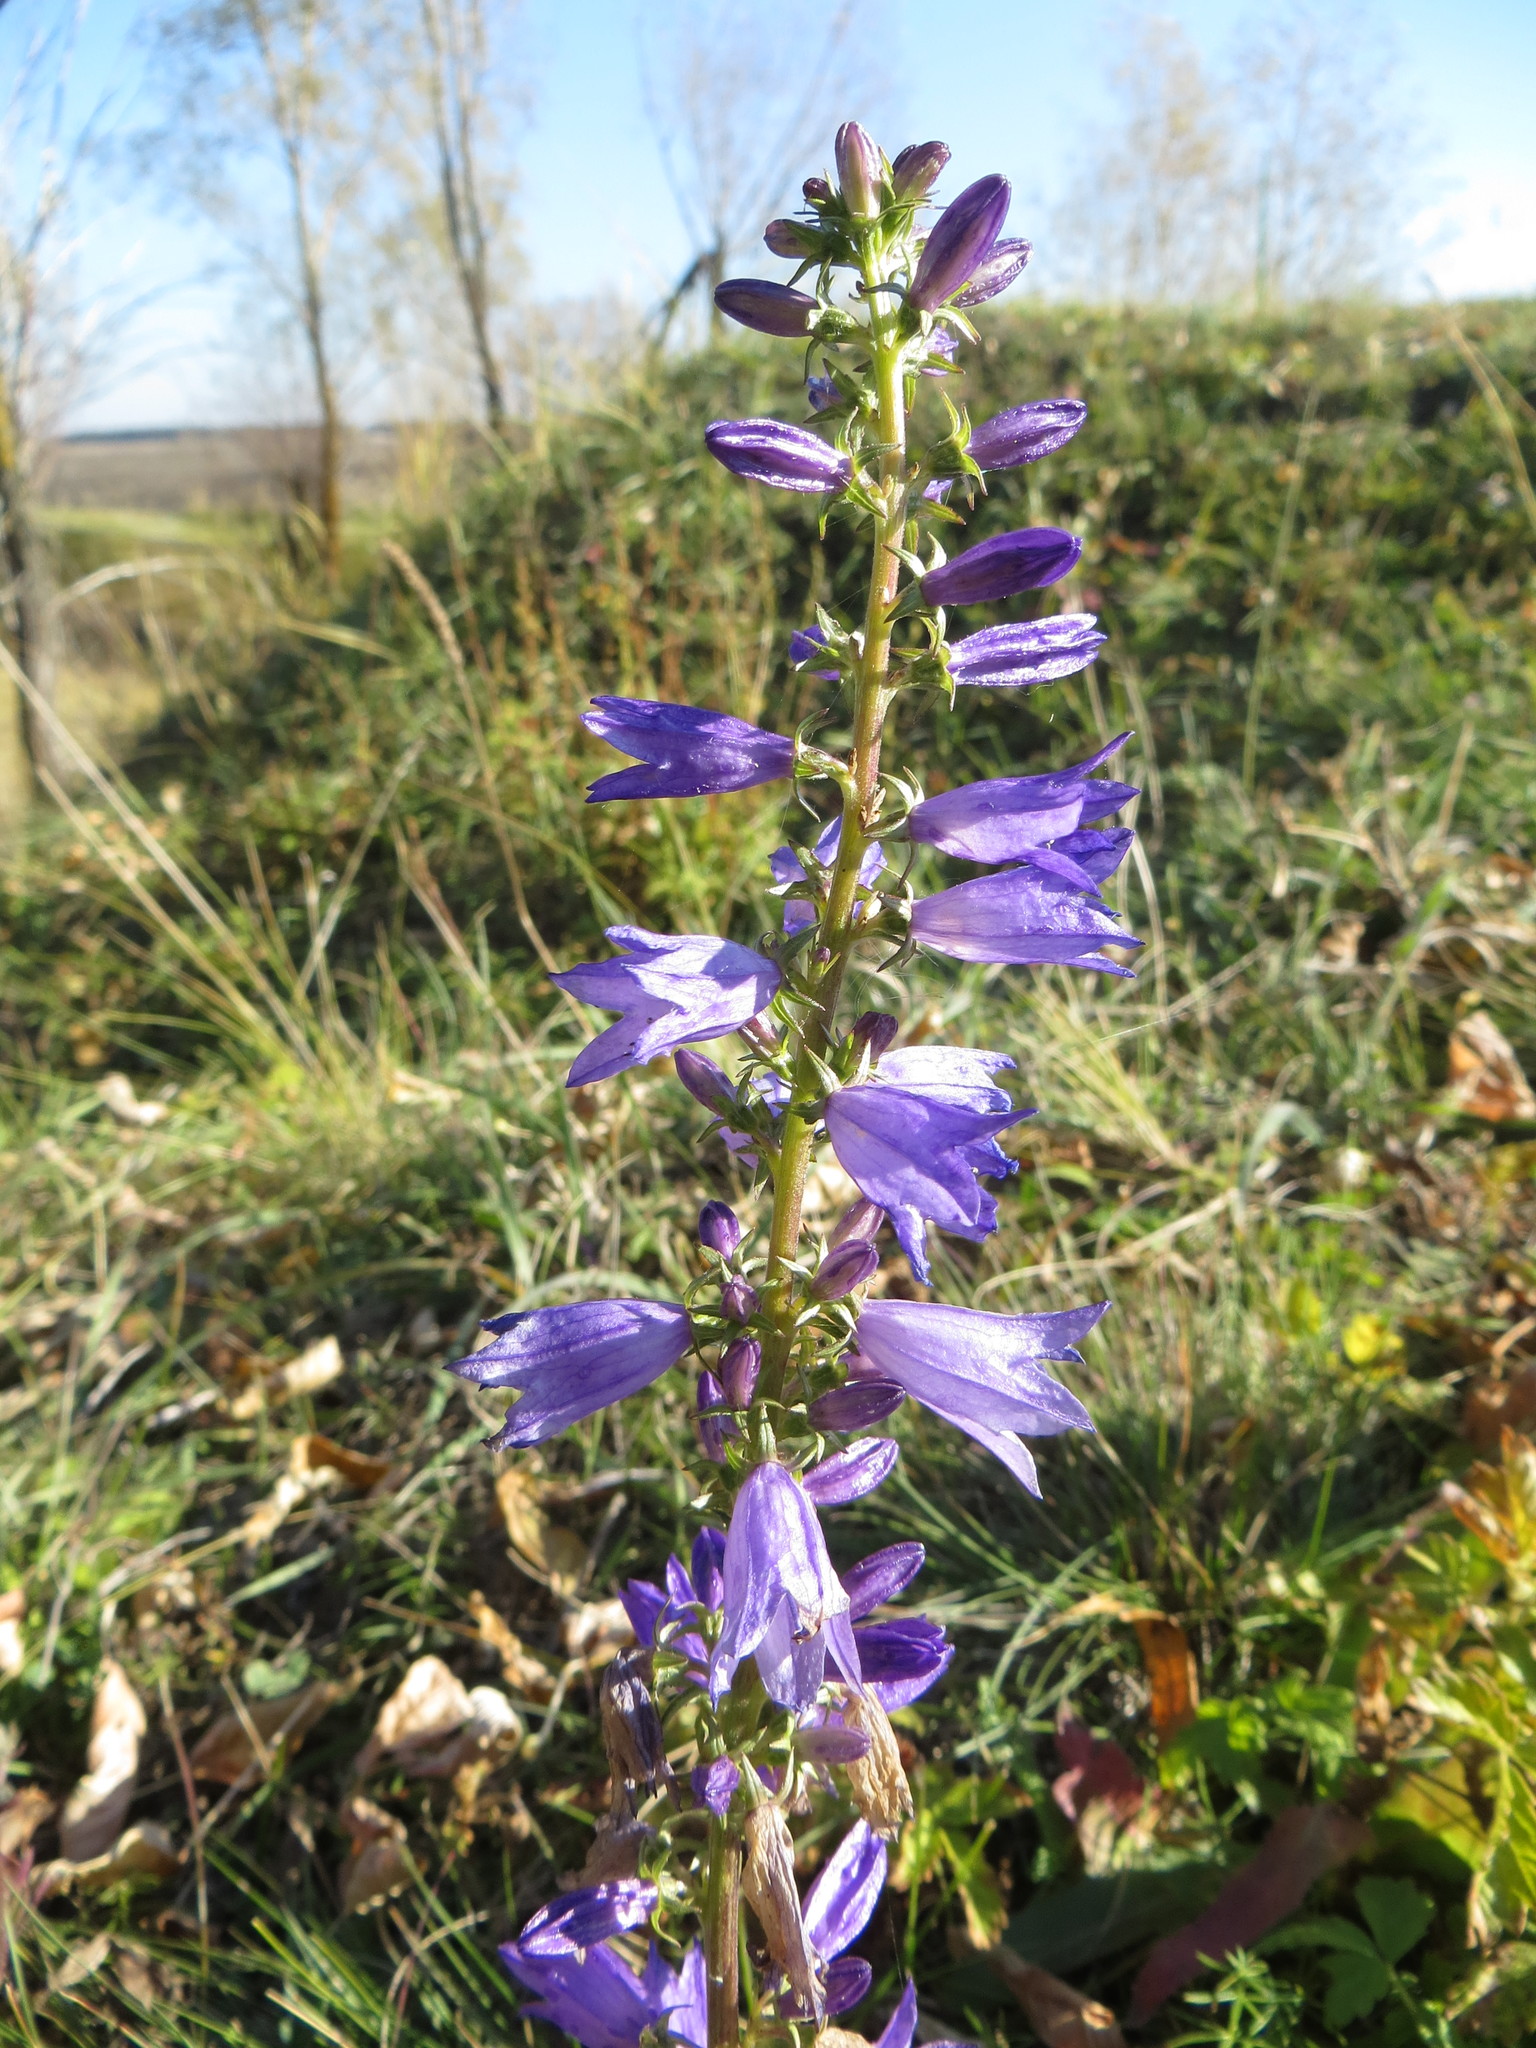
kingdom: Plantae
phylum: Tracheophyta
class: Magnoliopsida
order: Asterales
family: Campanulaceae
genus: Campanula
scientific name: Campanula bononiensis
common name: Pale bellflower
